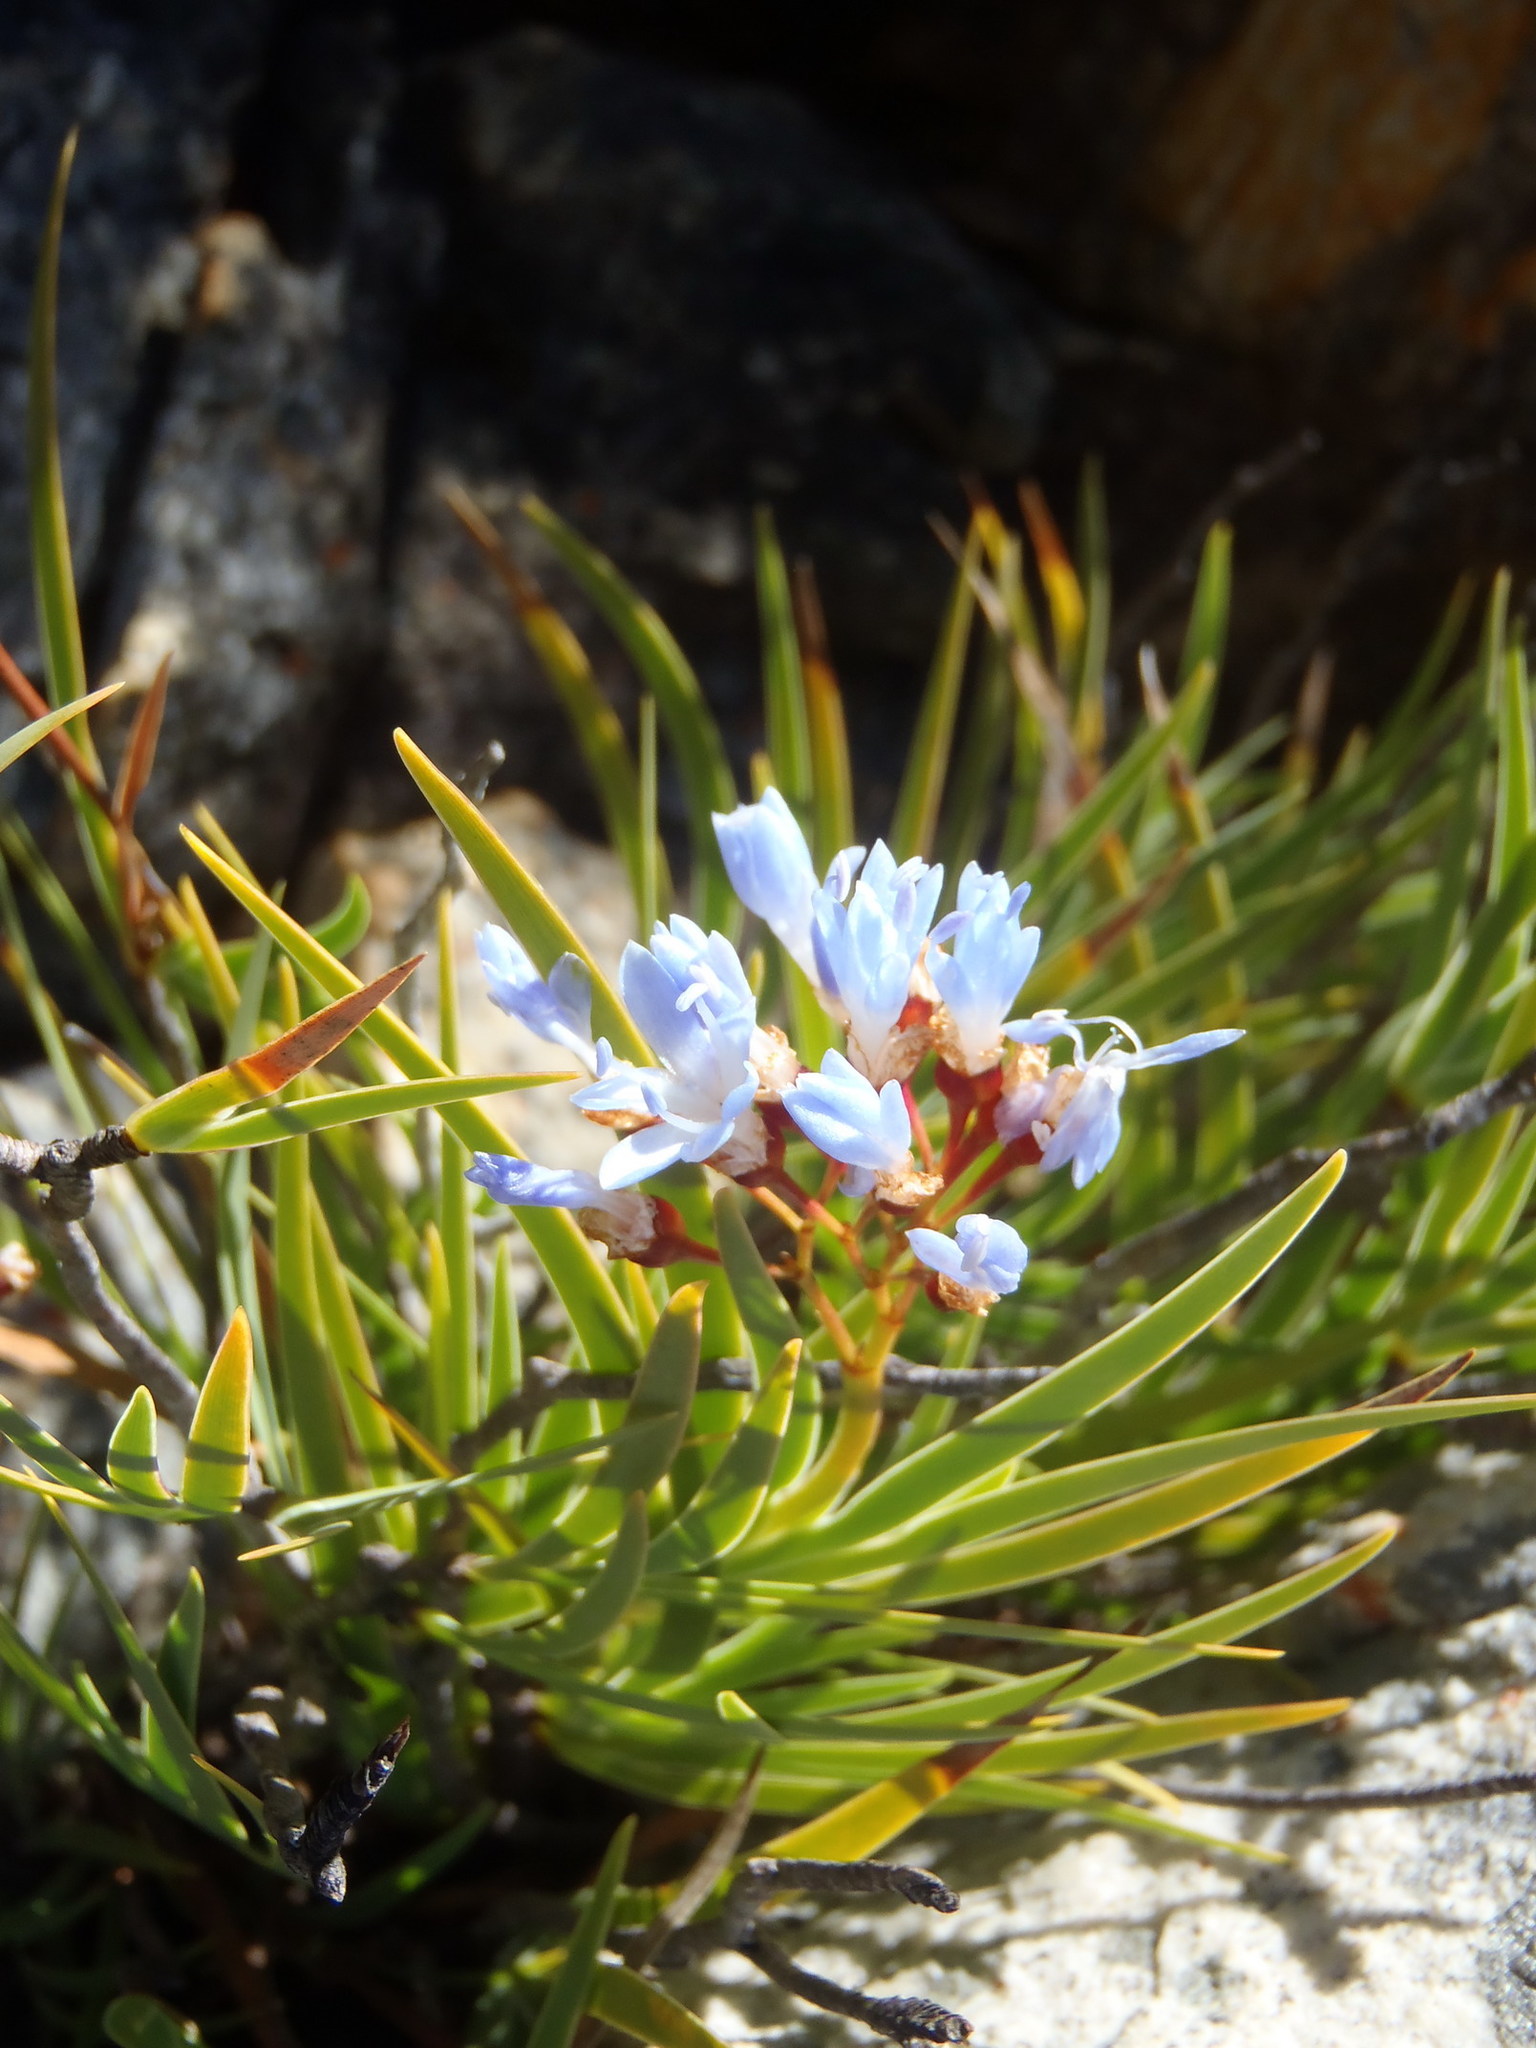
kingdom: Plantae
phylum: Tracheophyta
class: Liliopsida
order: Asparagales
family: Iridaceae
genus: Nivenia
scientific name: Nivenia parviflora
